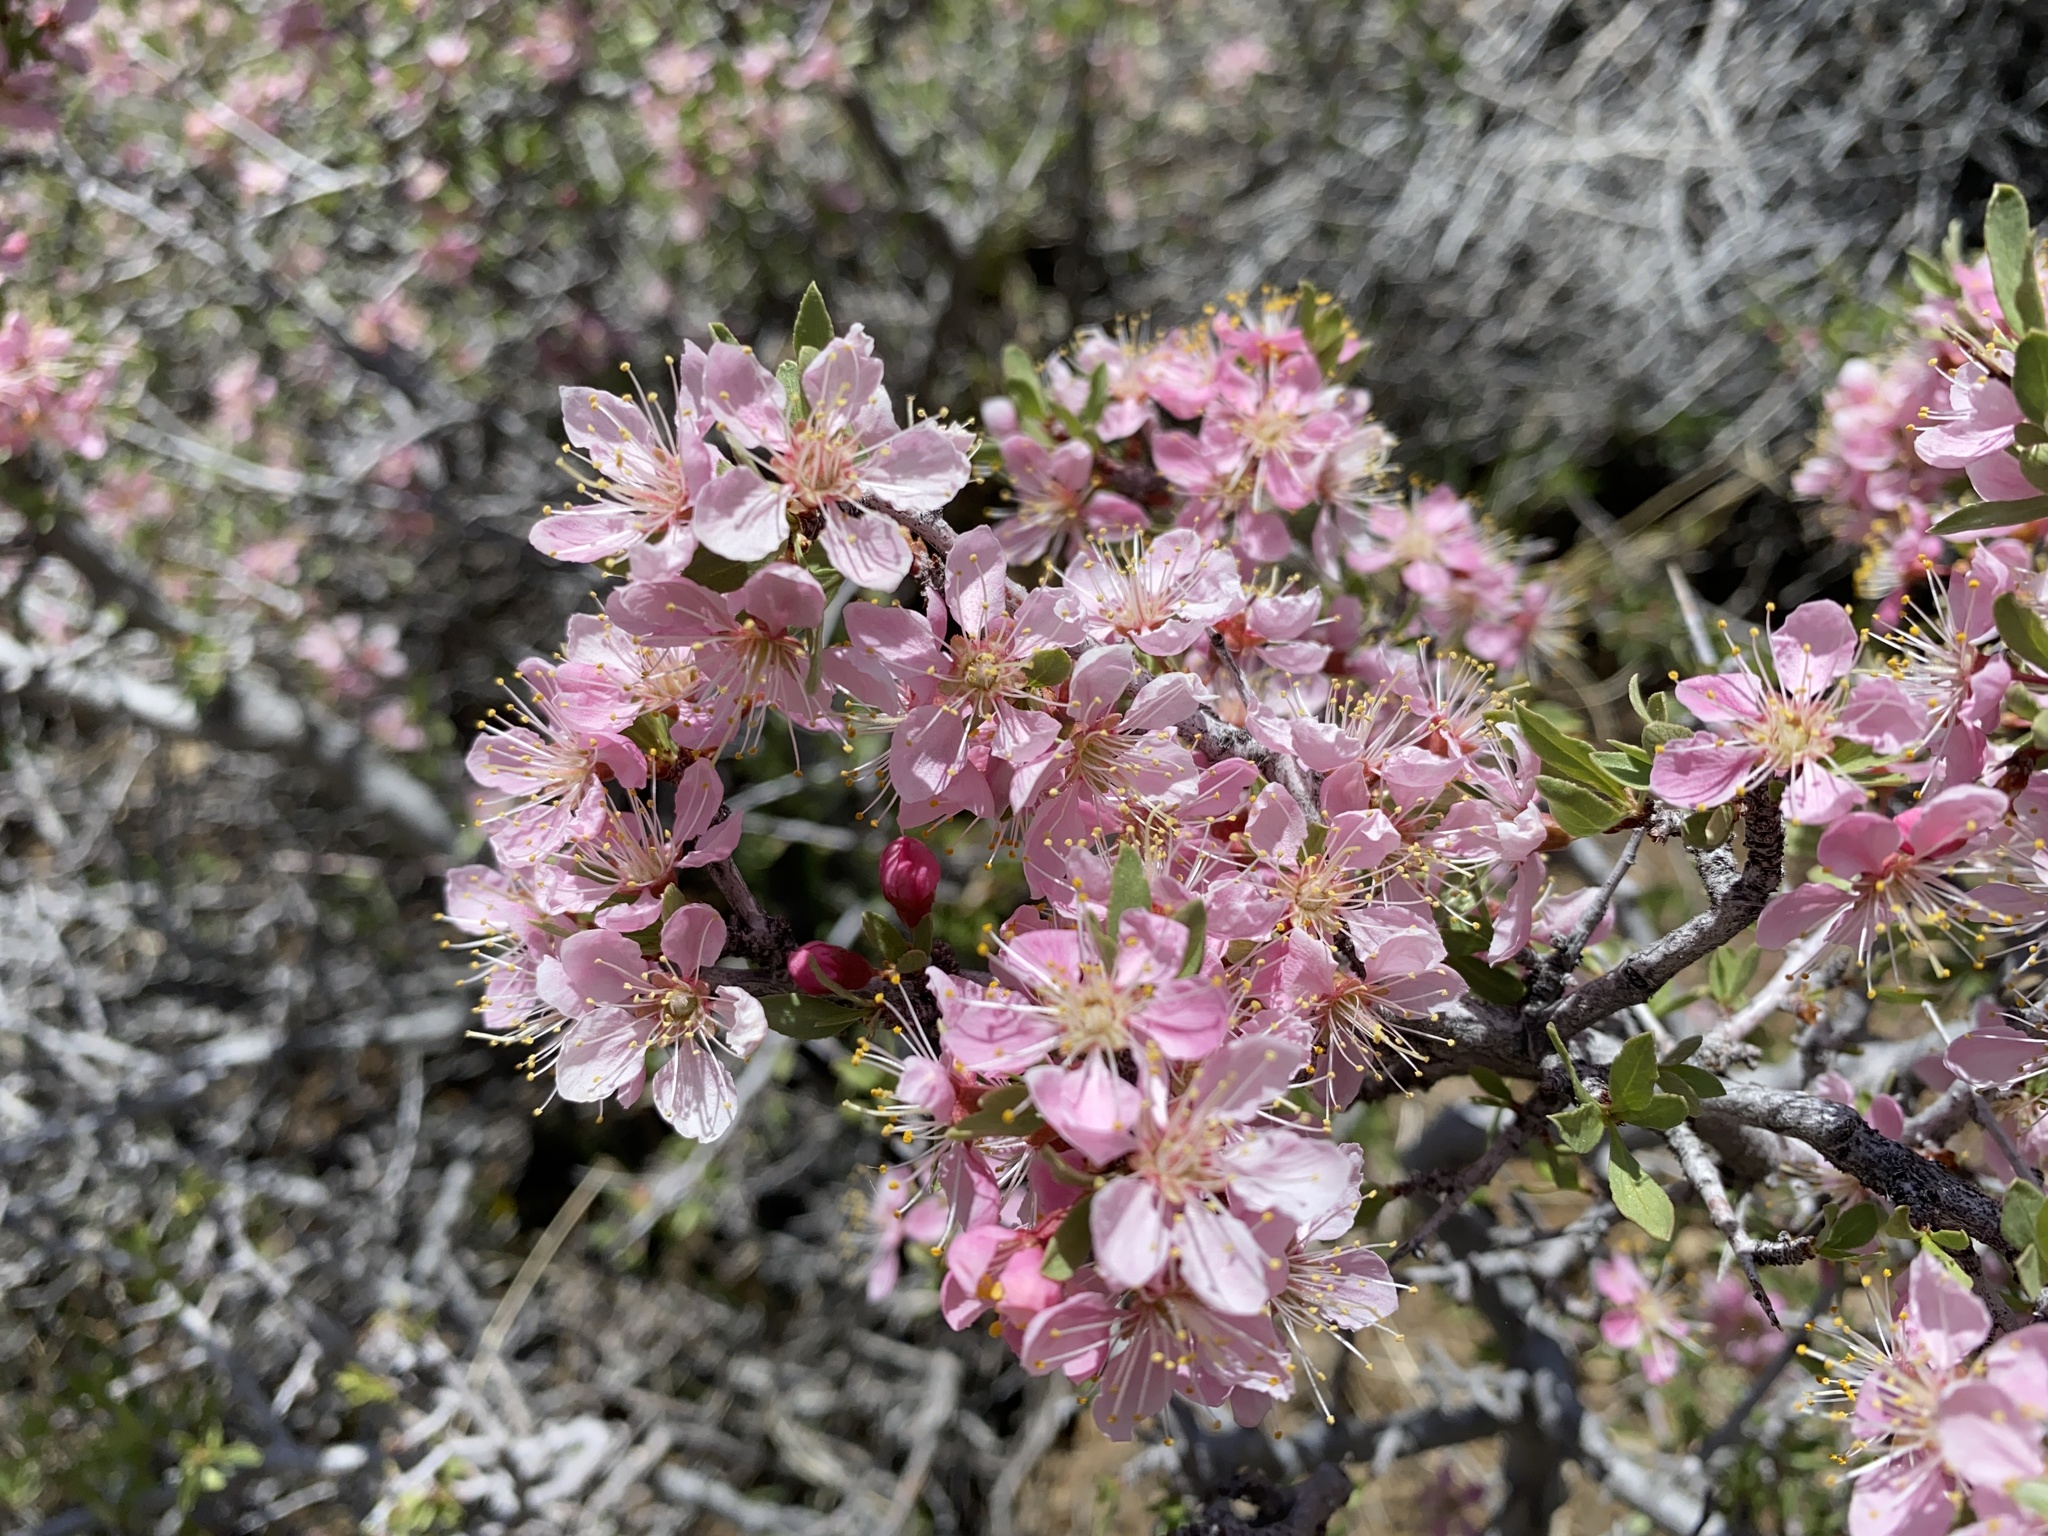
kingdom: Plantae
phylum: Tracheophyta
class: Magnoliopsida
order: Rosales
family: Rosaceae
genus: Prunus
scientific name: Prunus andersonii
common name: Desert peach
